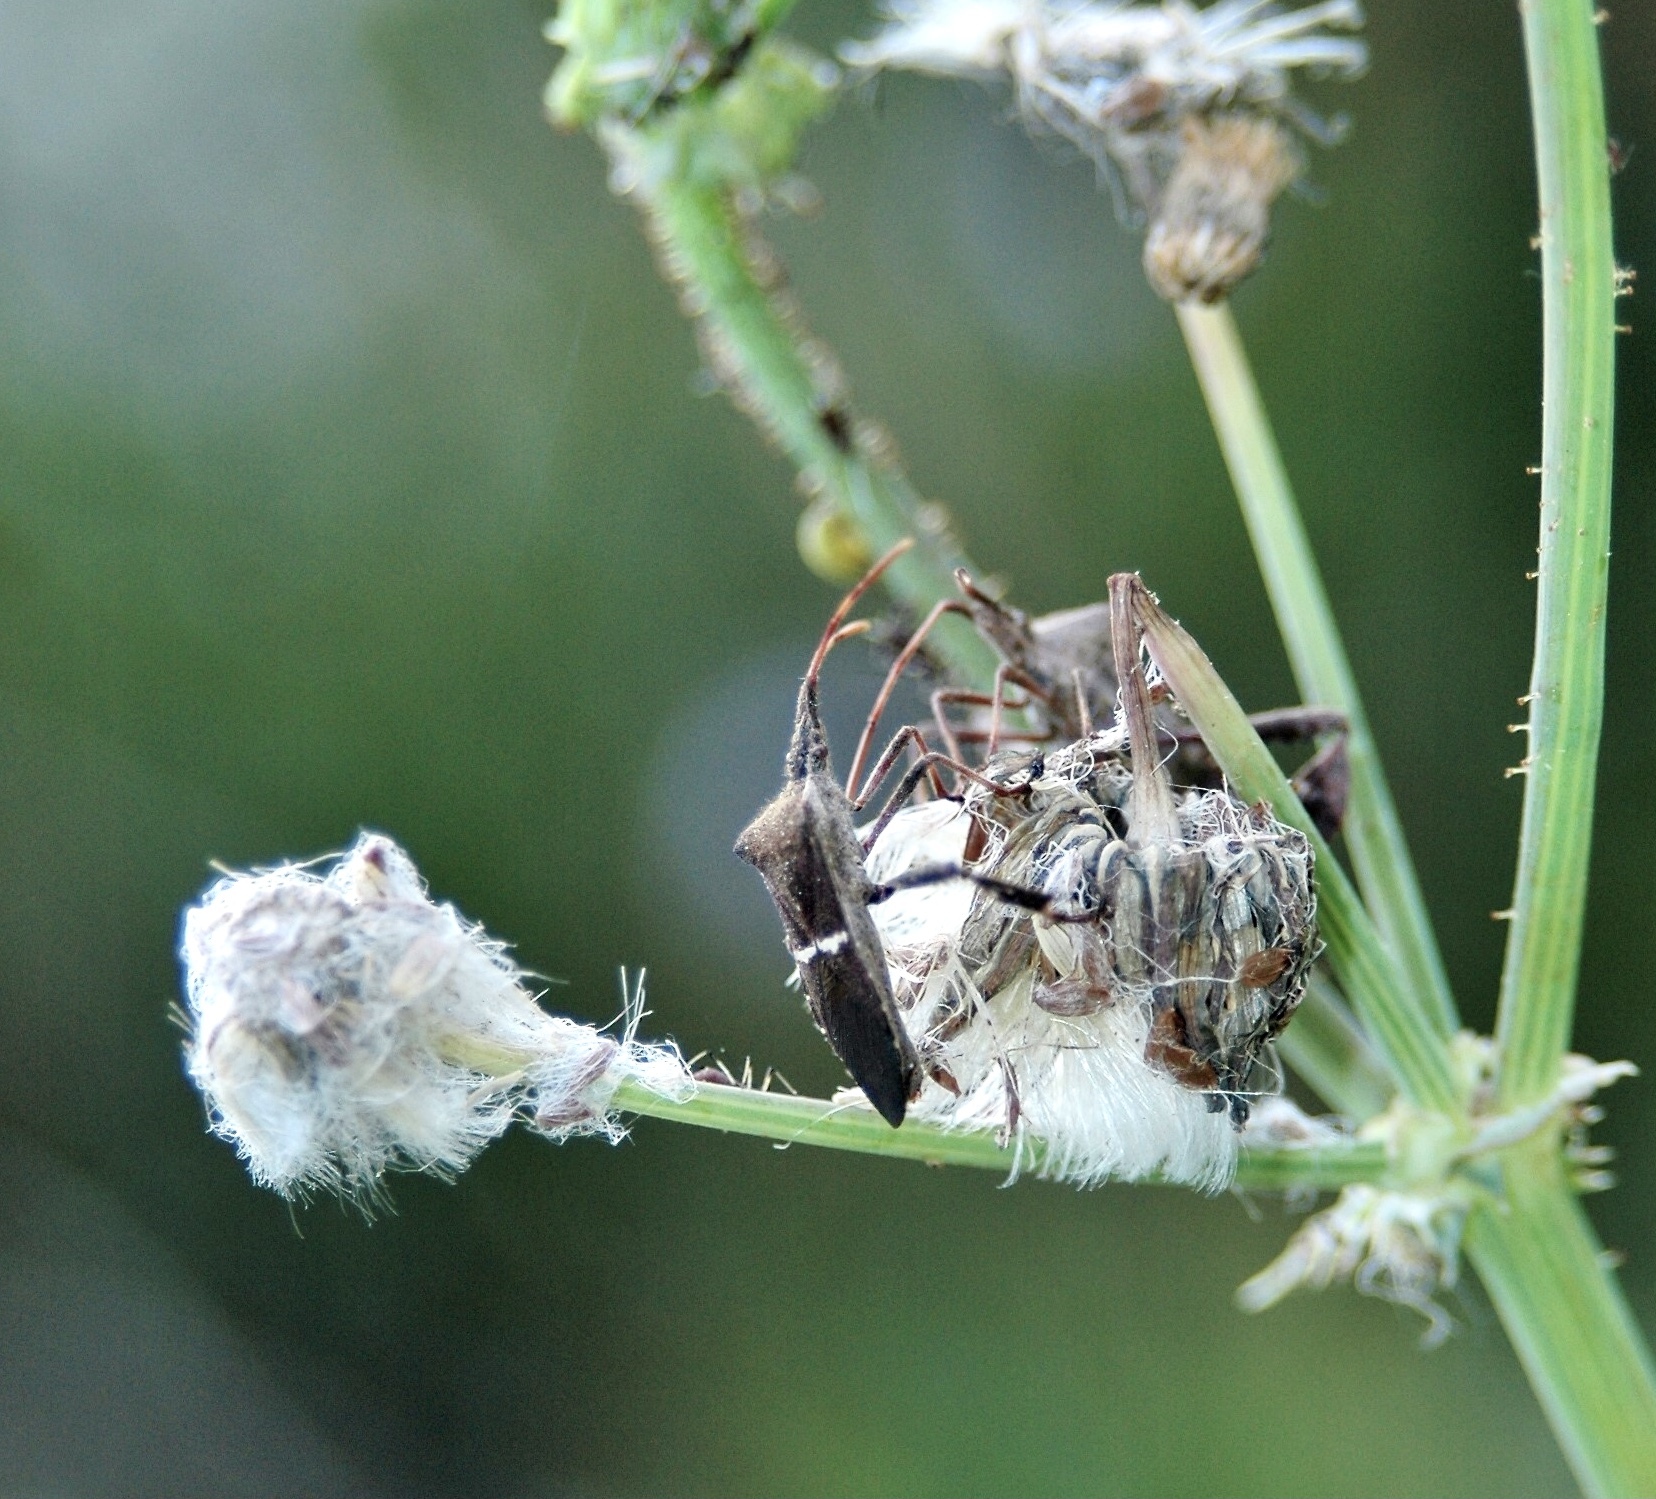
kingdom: Animalia
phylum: Arthropoda
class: Insecta
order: Hemiptera
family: Coreidae
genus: Leptoglossus
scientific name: Leptoglossus phyllopus
